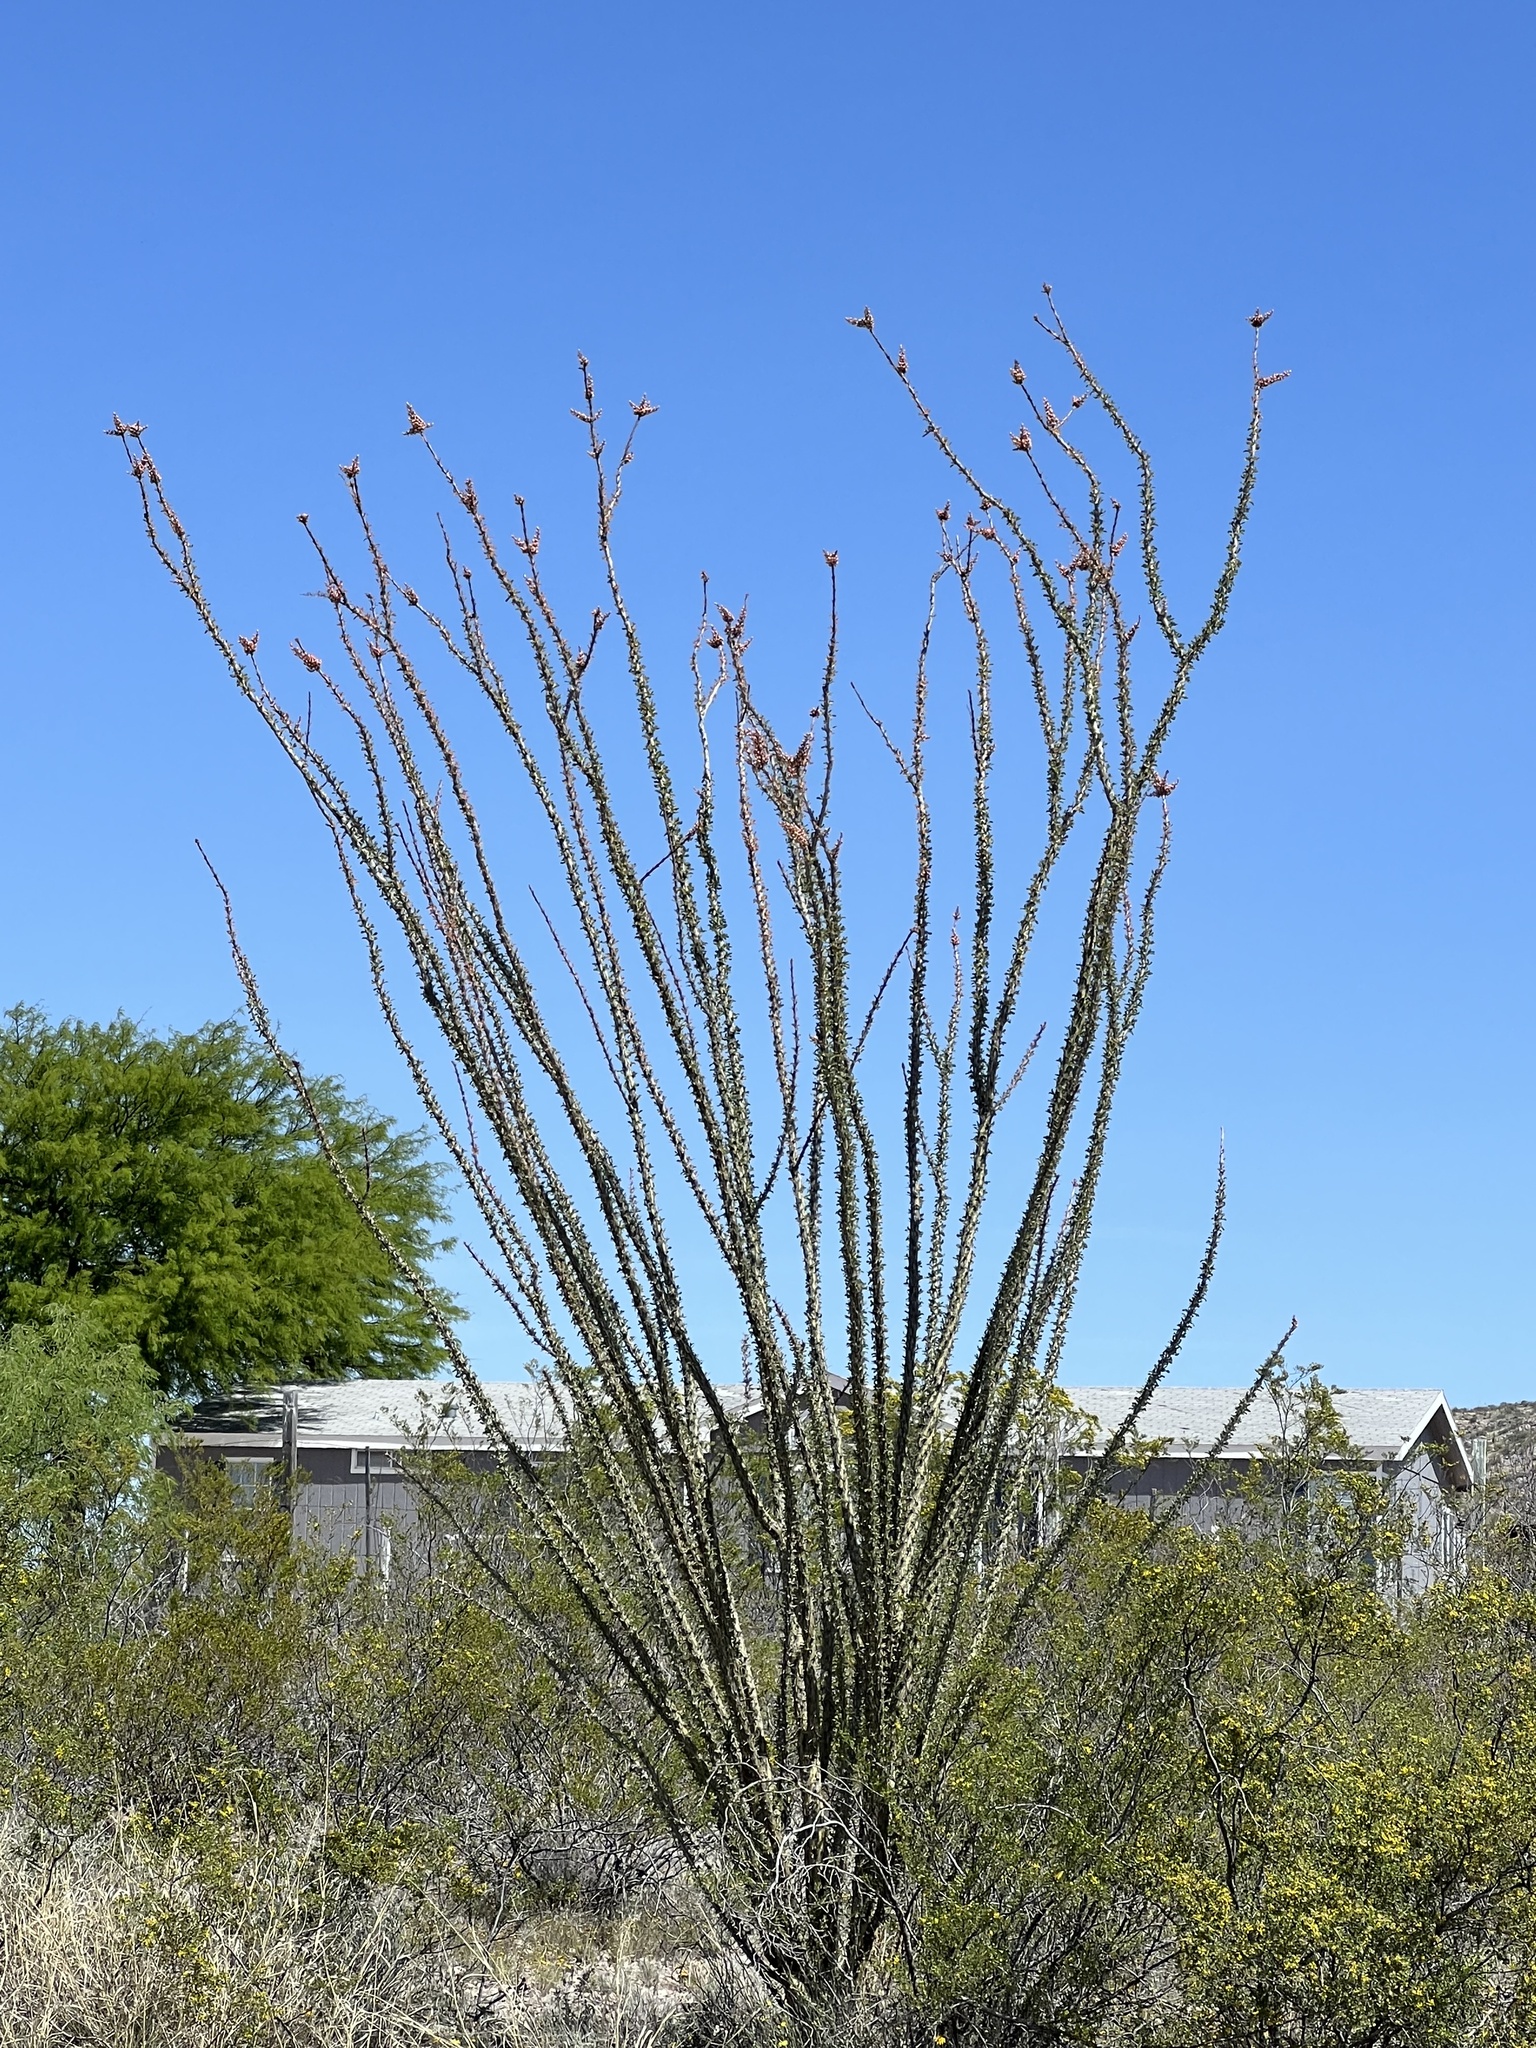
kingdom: Plantae
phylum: Tracheophyta
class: Magnoliopsida
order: Ericales
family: Fouquieriaceae
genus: Fouquieria
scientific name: Fouquieria splendens
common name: Vine-cactus
